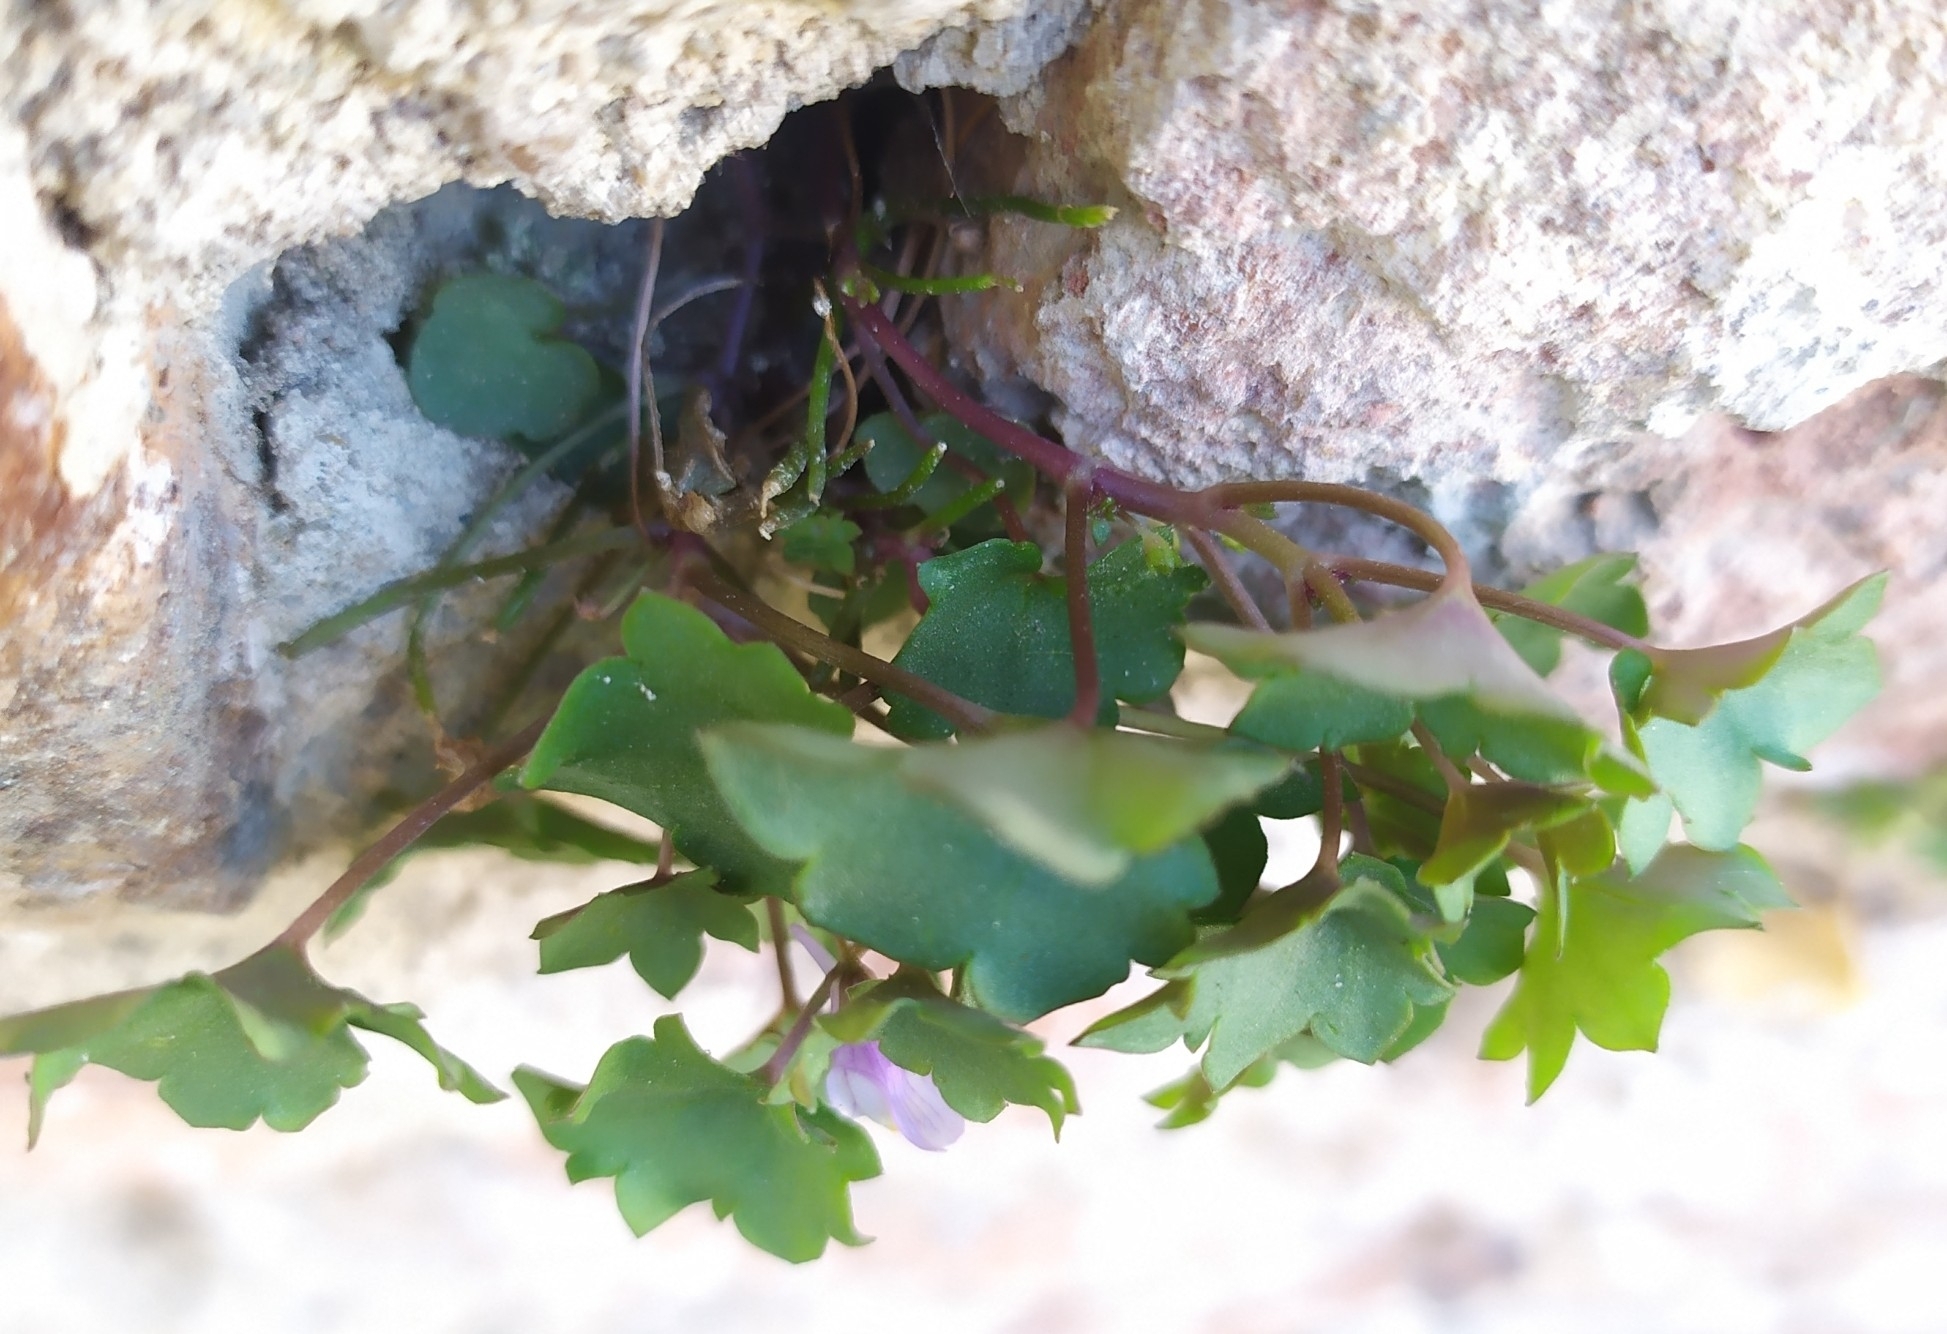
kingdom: Plantae
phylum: Tracheophyta
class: Magnoliopsida
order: Lamiales
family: Plantaginaceae
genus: Cymbalaria
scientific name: Cymbalaria muralis
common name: Ivy-leaved toadflax
